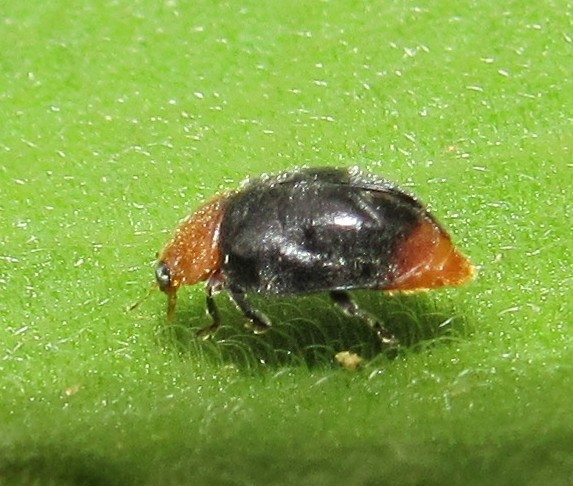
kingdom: Animalia
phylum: Arthropoda
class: Insecta
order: Coleoptera
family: Coccinellidae
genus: Cryptolaemus
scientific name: Cryptolaemus montrouzieri
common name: Mealybug destroyer
